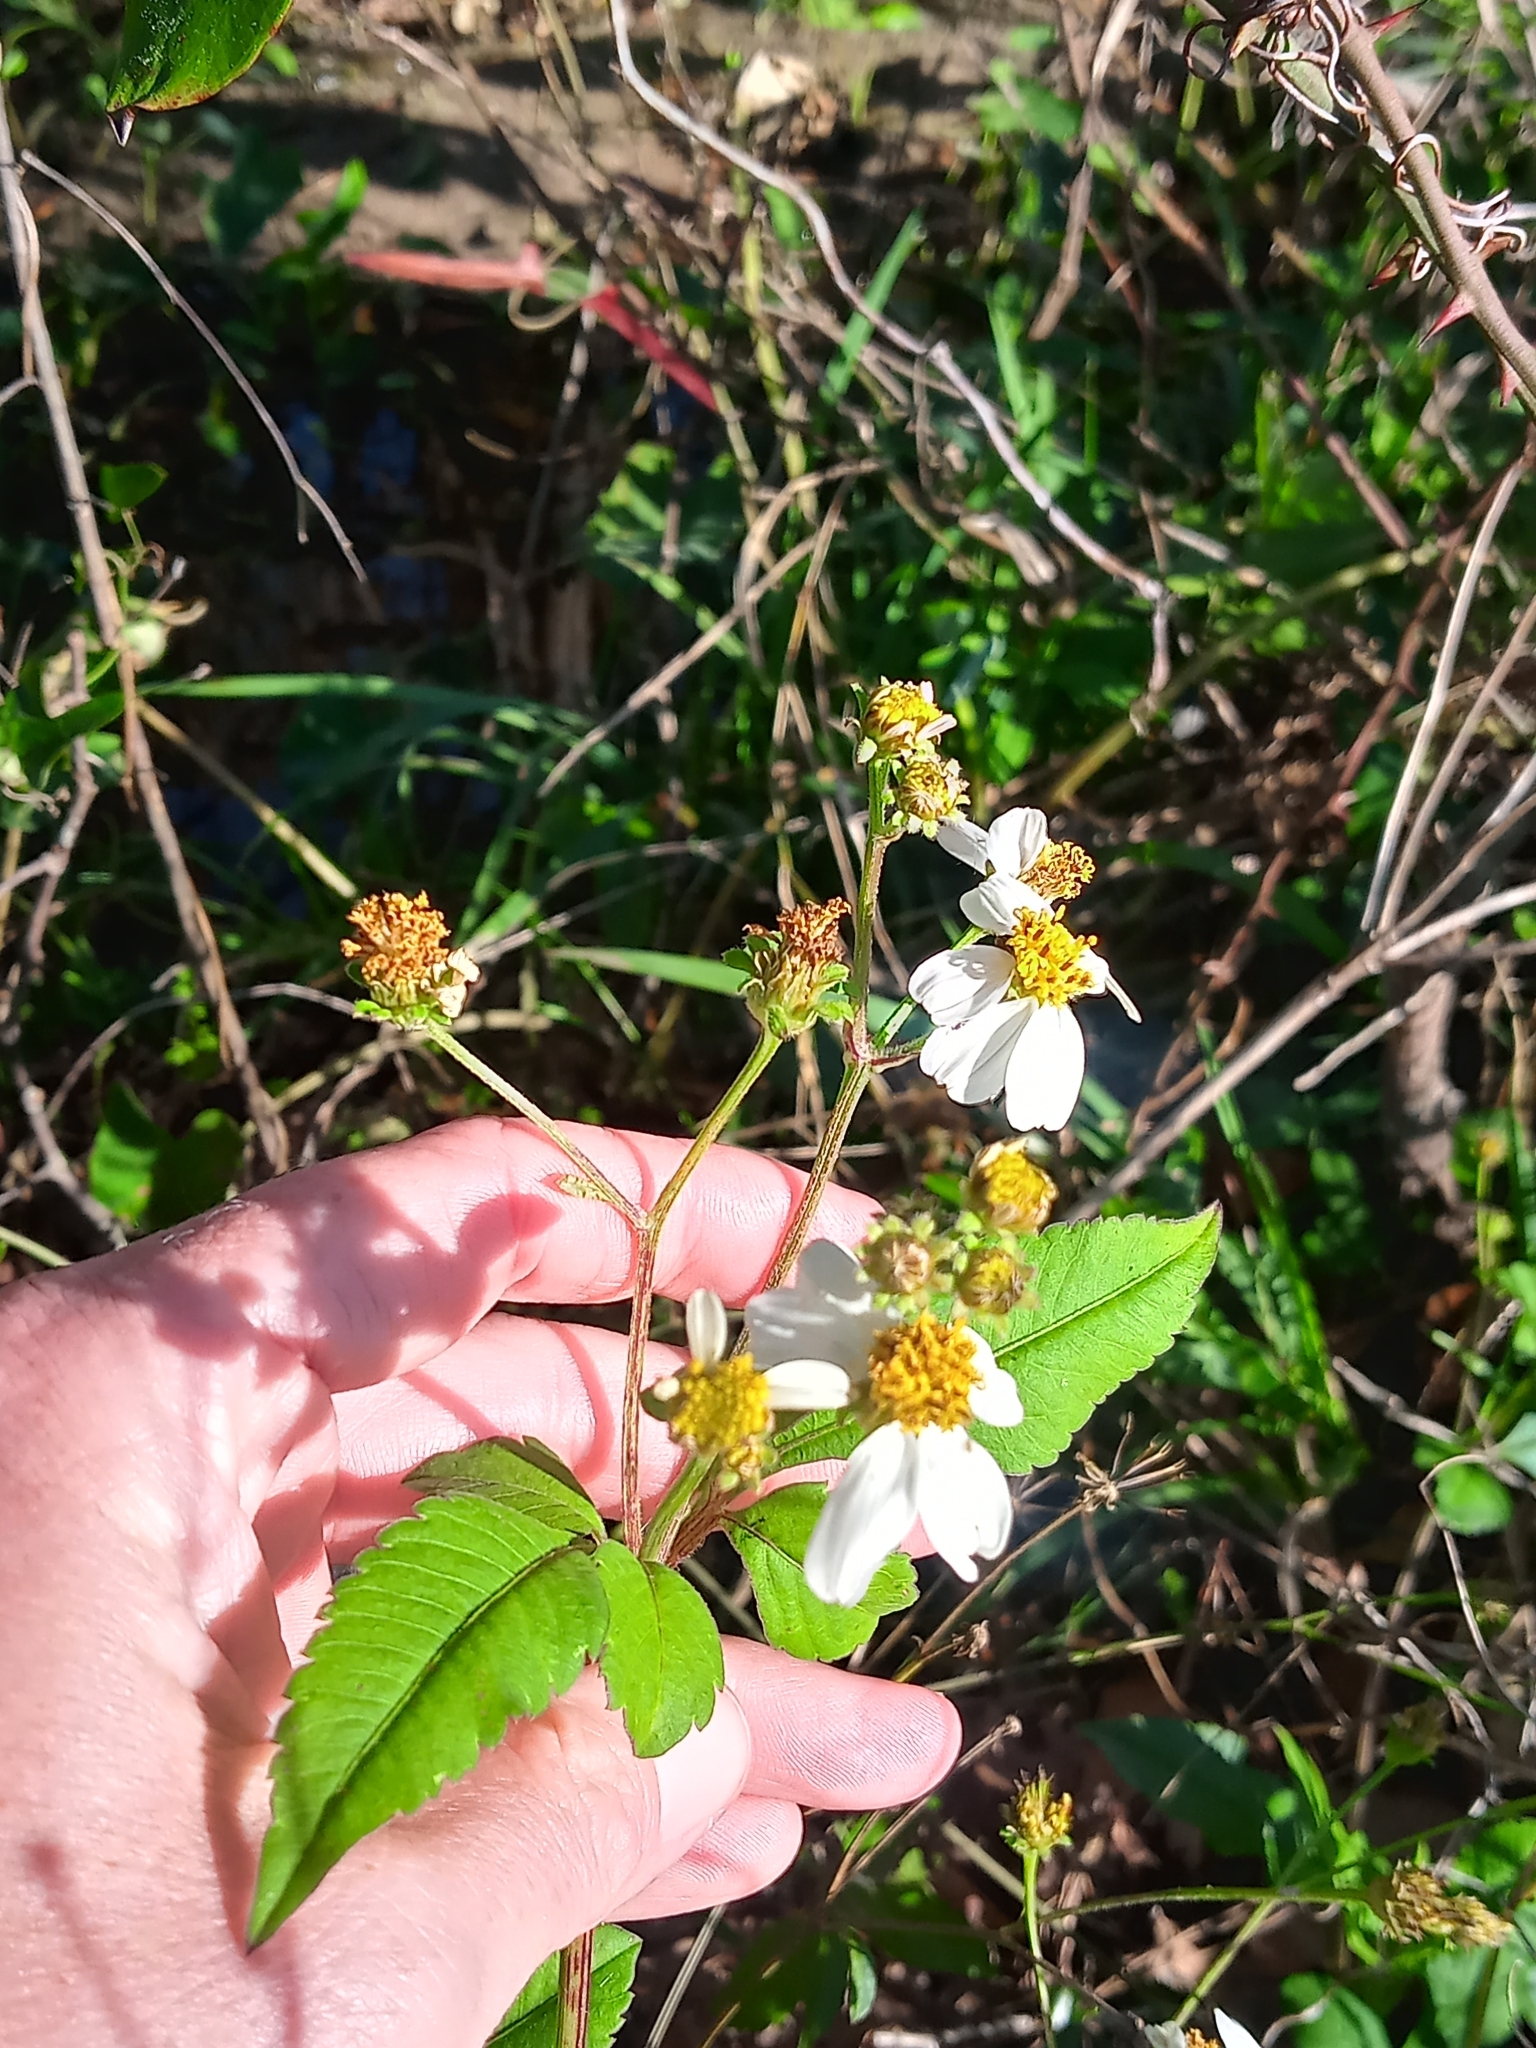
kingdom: Plantae
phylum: Tracheophyta
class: Magnoliopsida
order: Asterales
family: Asteraceae
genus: Bidens
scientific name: Bidens alba
